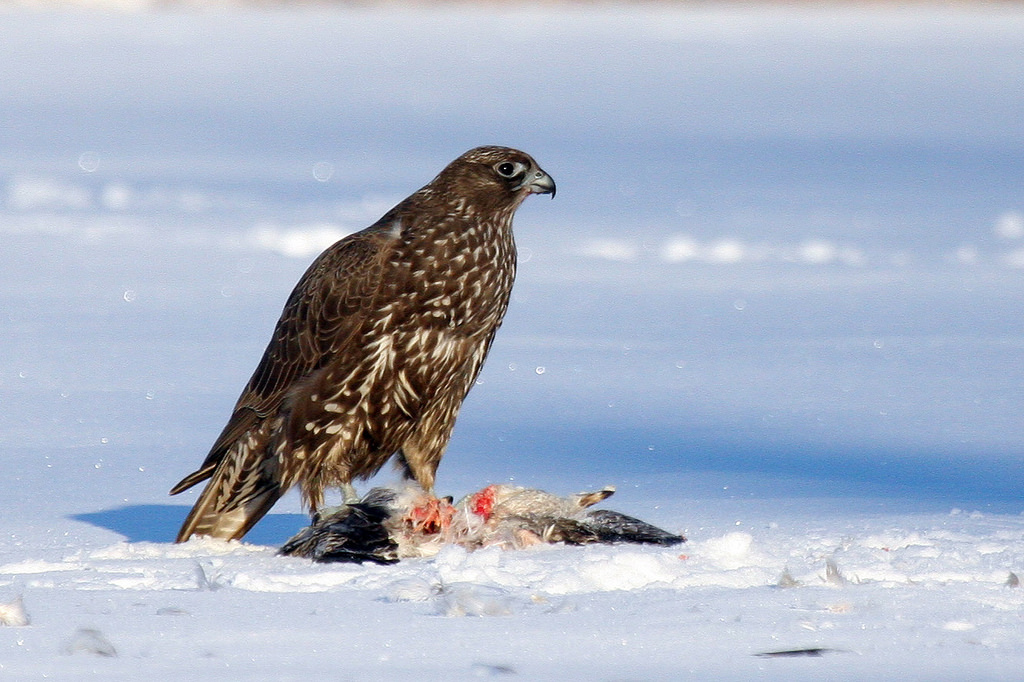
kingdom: Animalia
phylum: Chordata
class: Aves
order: Falconiformes
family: Falconidae
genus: Falco
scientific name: Falco rusticolus
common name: Gyrfalcon
